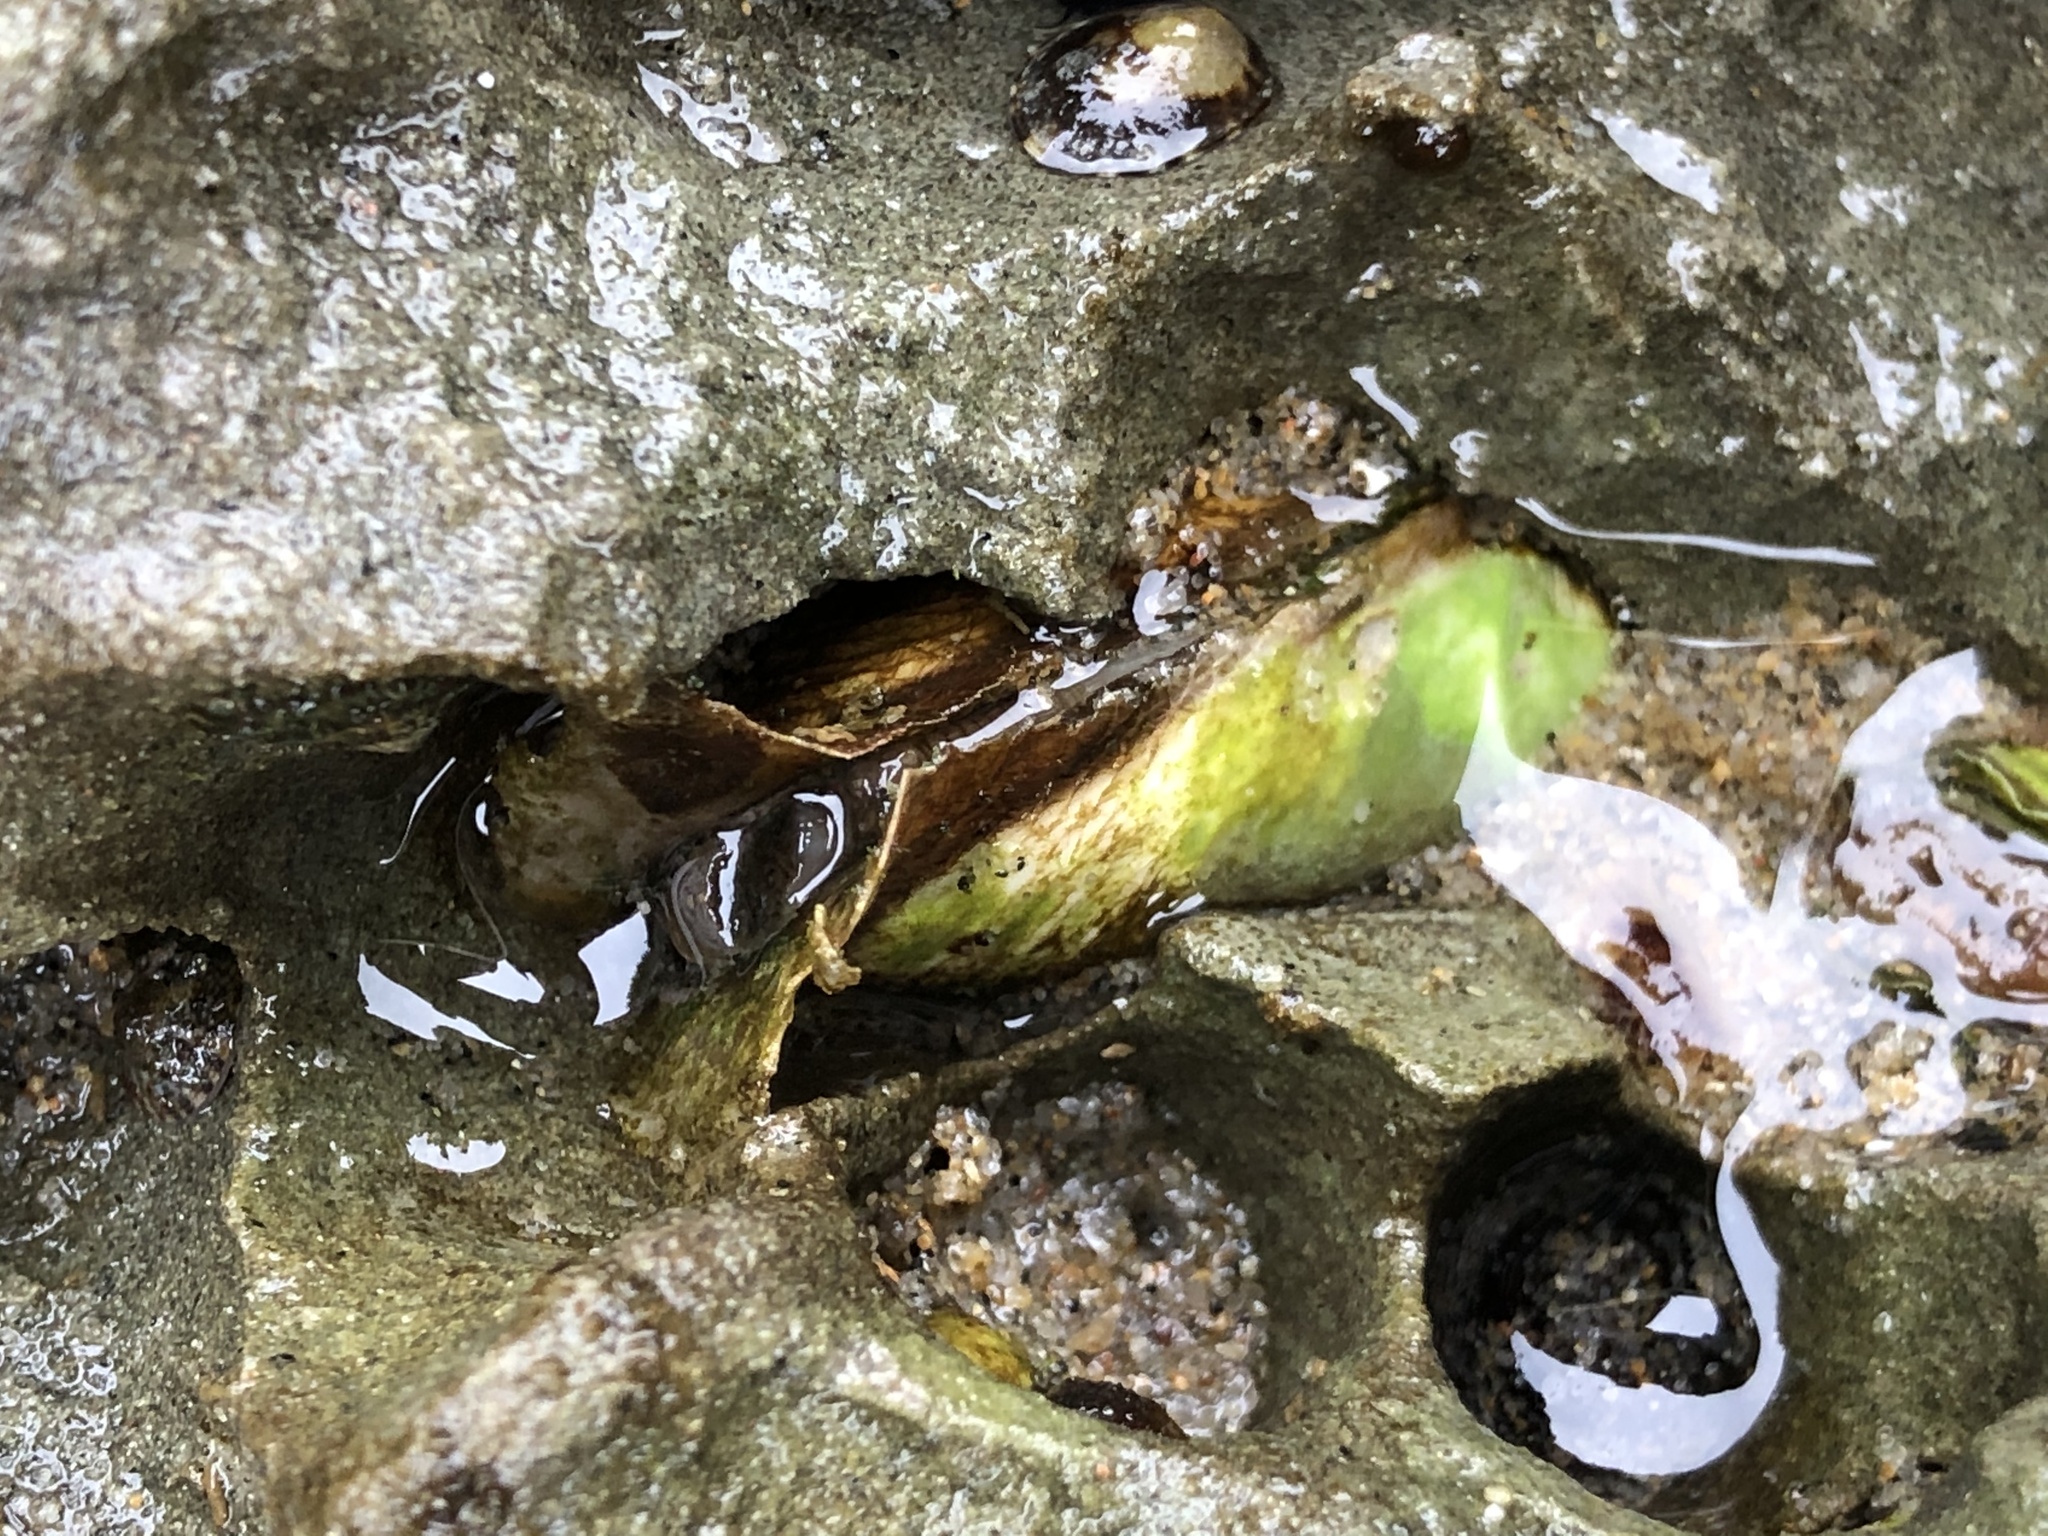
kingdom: Animalia
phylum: Mollusca
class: Bivalvia
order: Myida
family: Pholadidae
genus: Penitella
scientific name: Penitella penita
